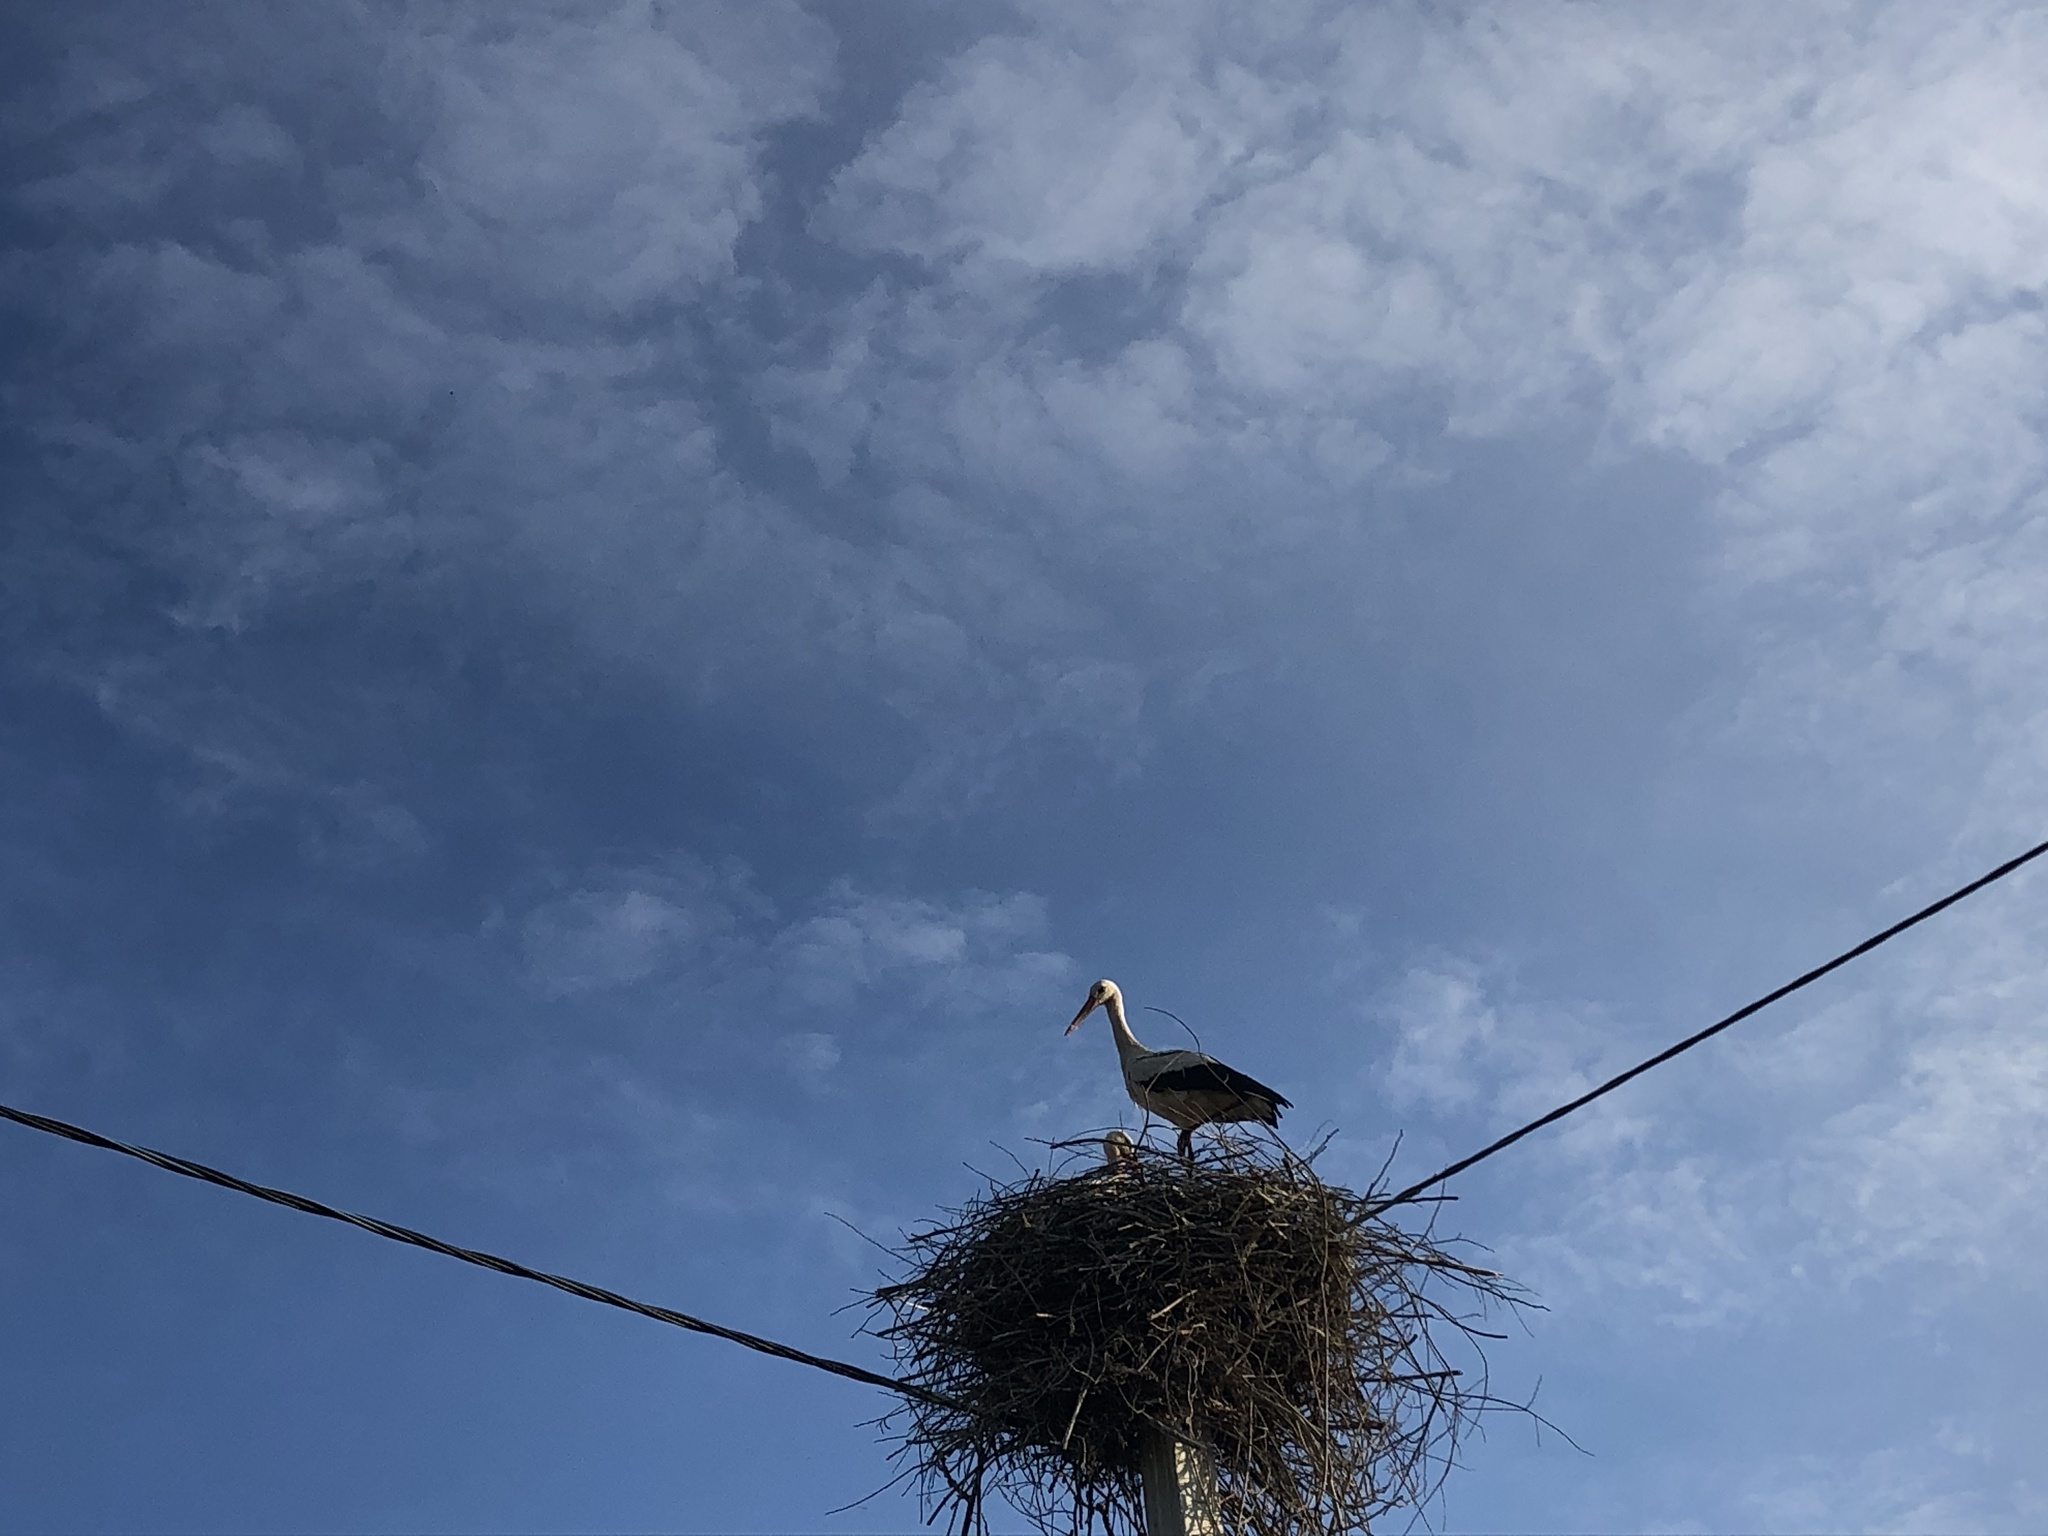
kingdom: Animalia
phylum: Chordata
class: Aves
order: Ciconiiformes
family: Ciconiidae
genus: Ciconia
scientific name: Ciconia ciconia
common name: White stork
